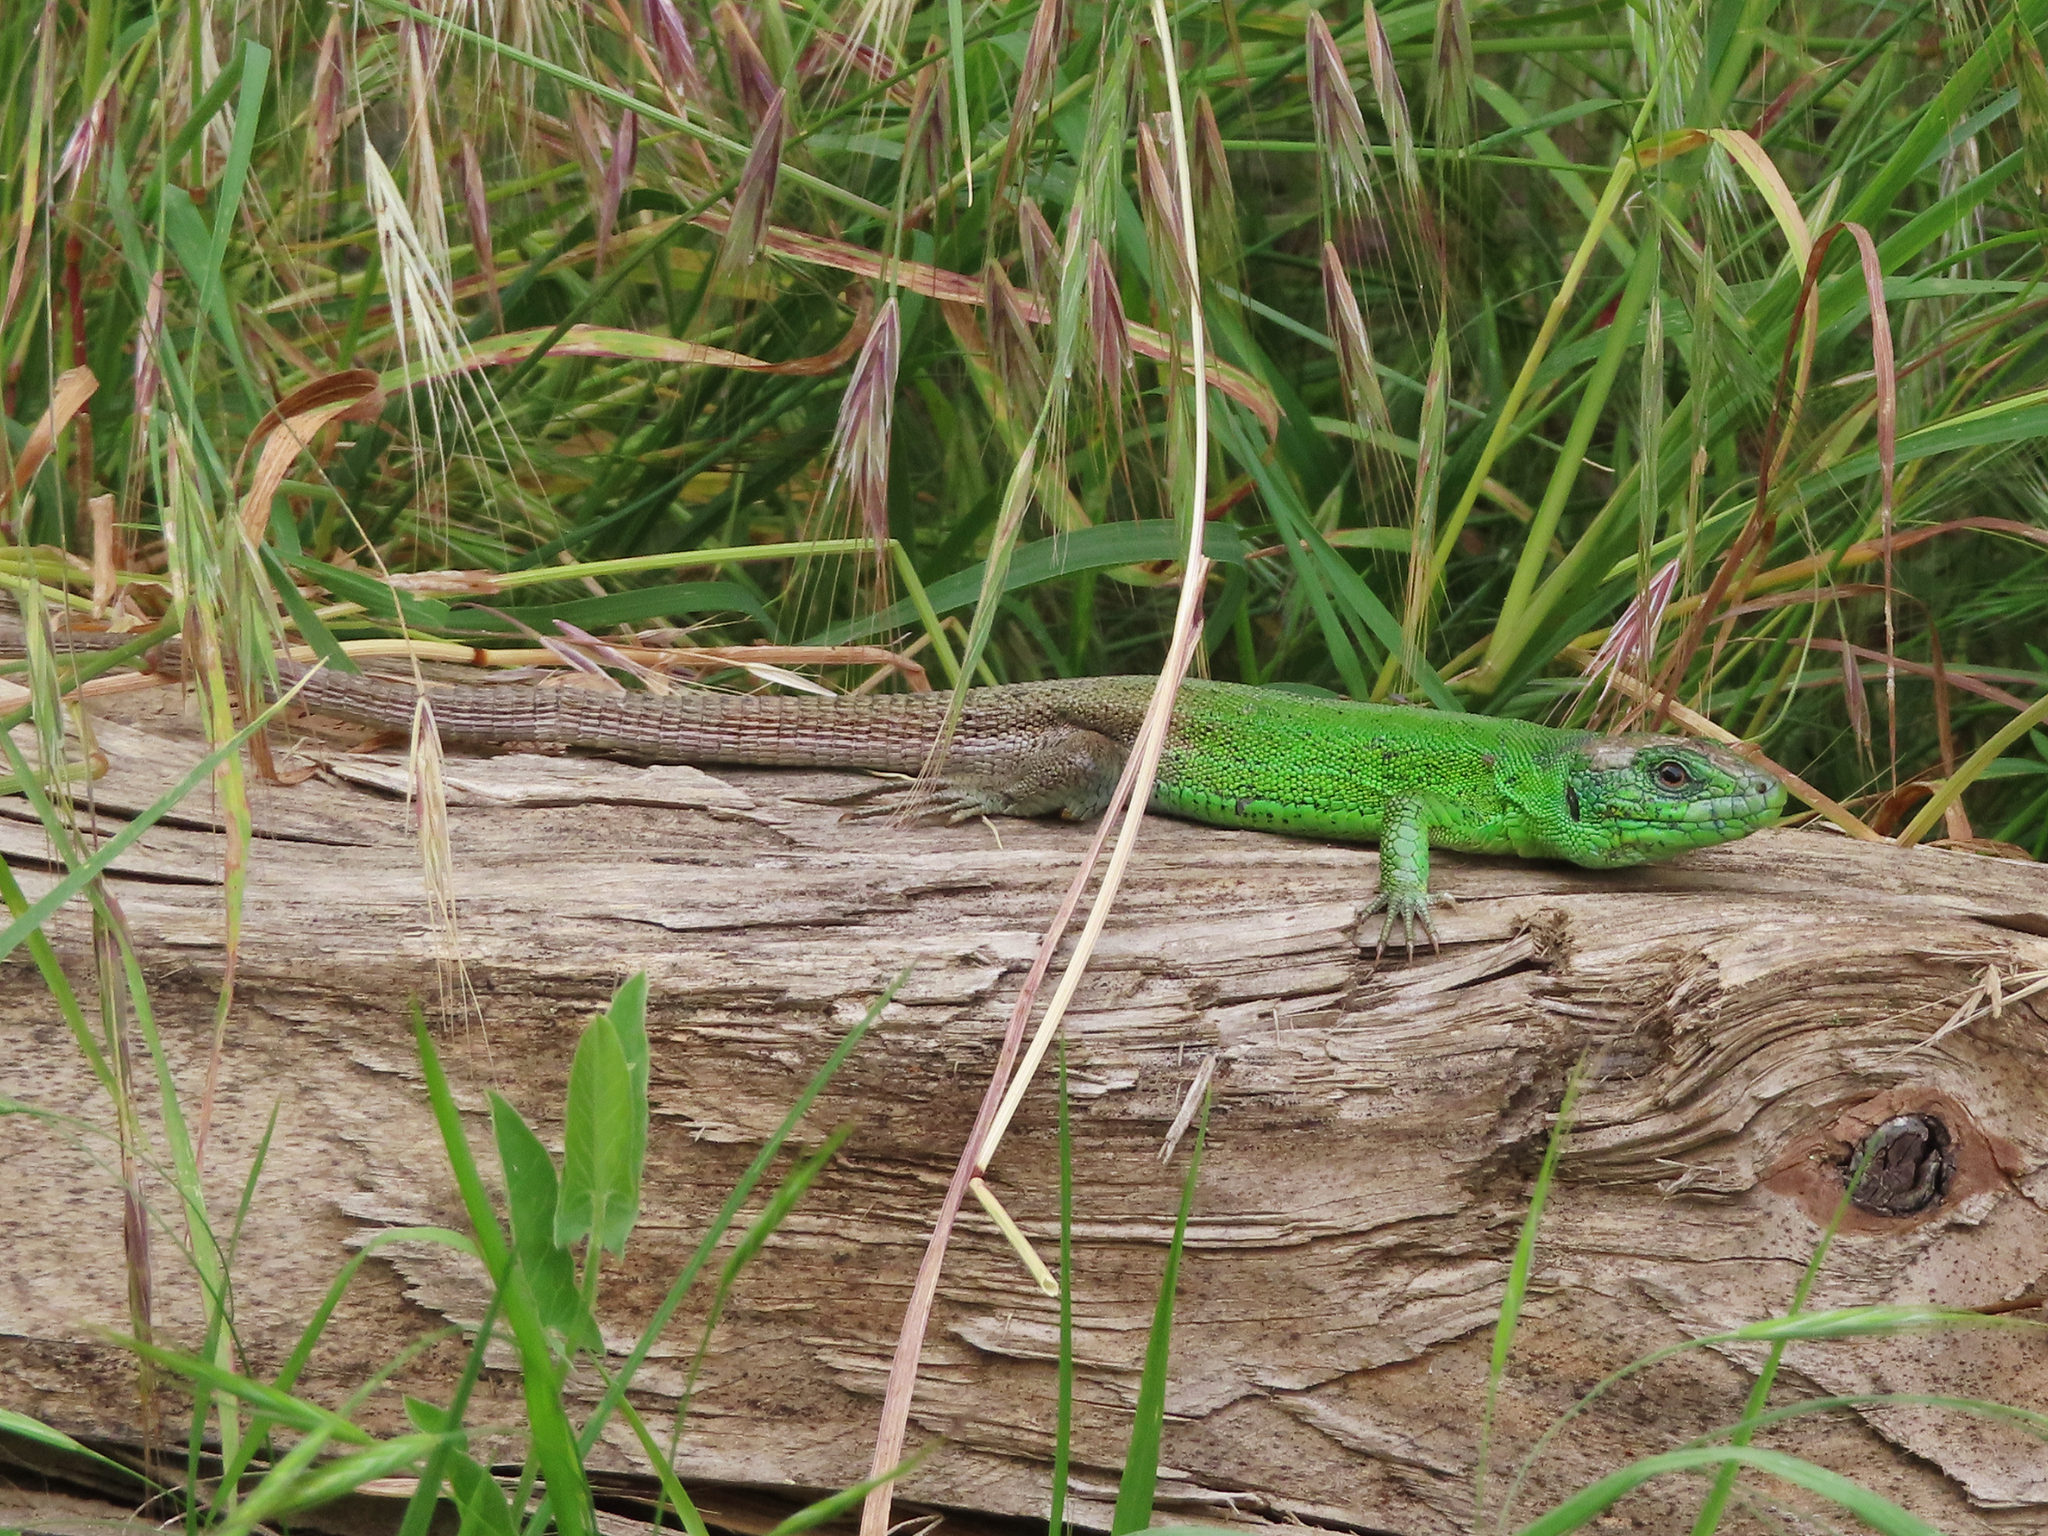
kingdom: Animalia
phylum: Chordata
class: Squamata
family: Lacertidae
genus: Lacerta
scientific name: Lacerta strigata
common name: Caspian green lizard
